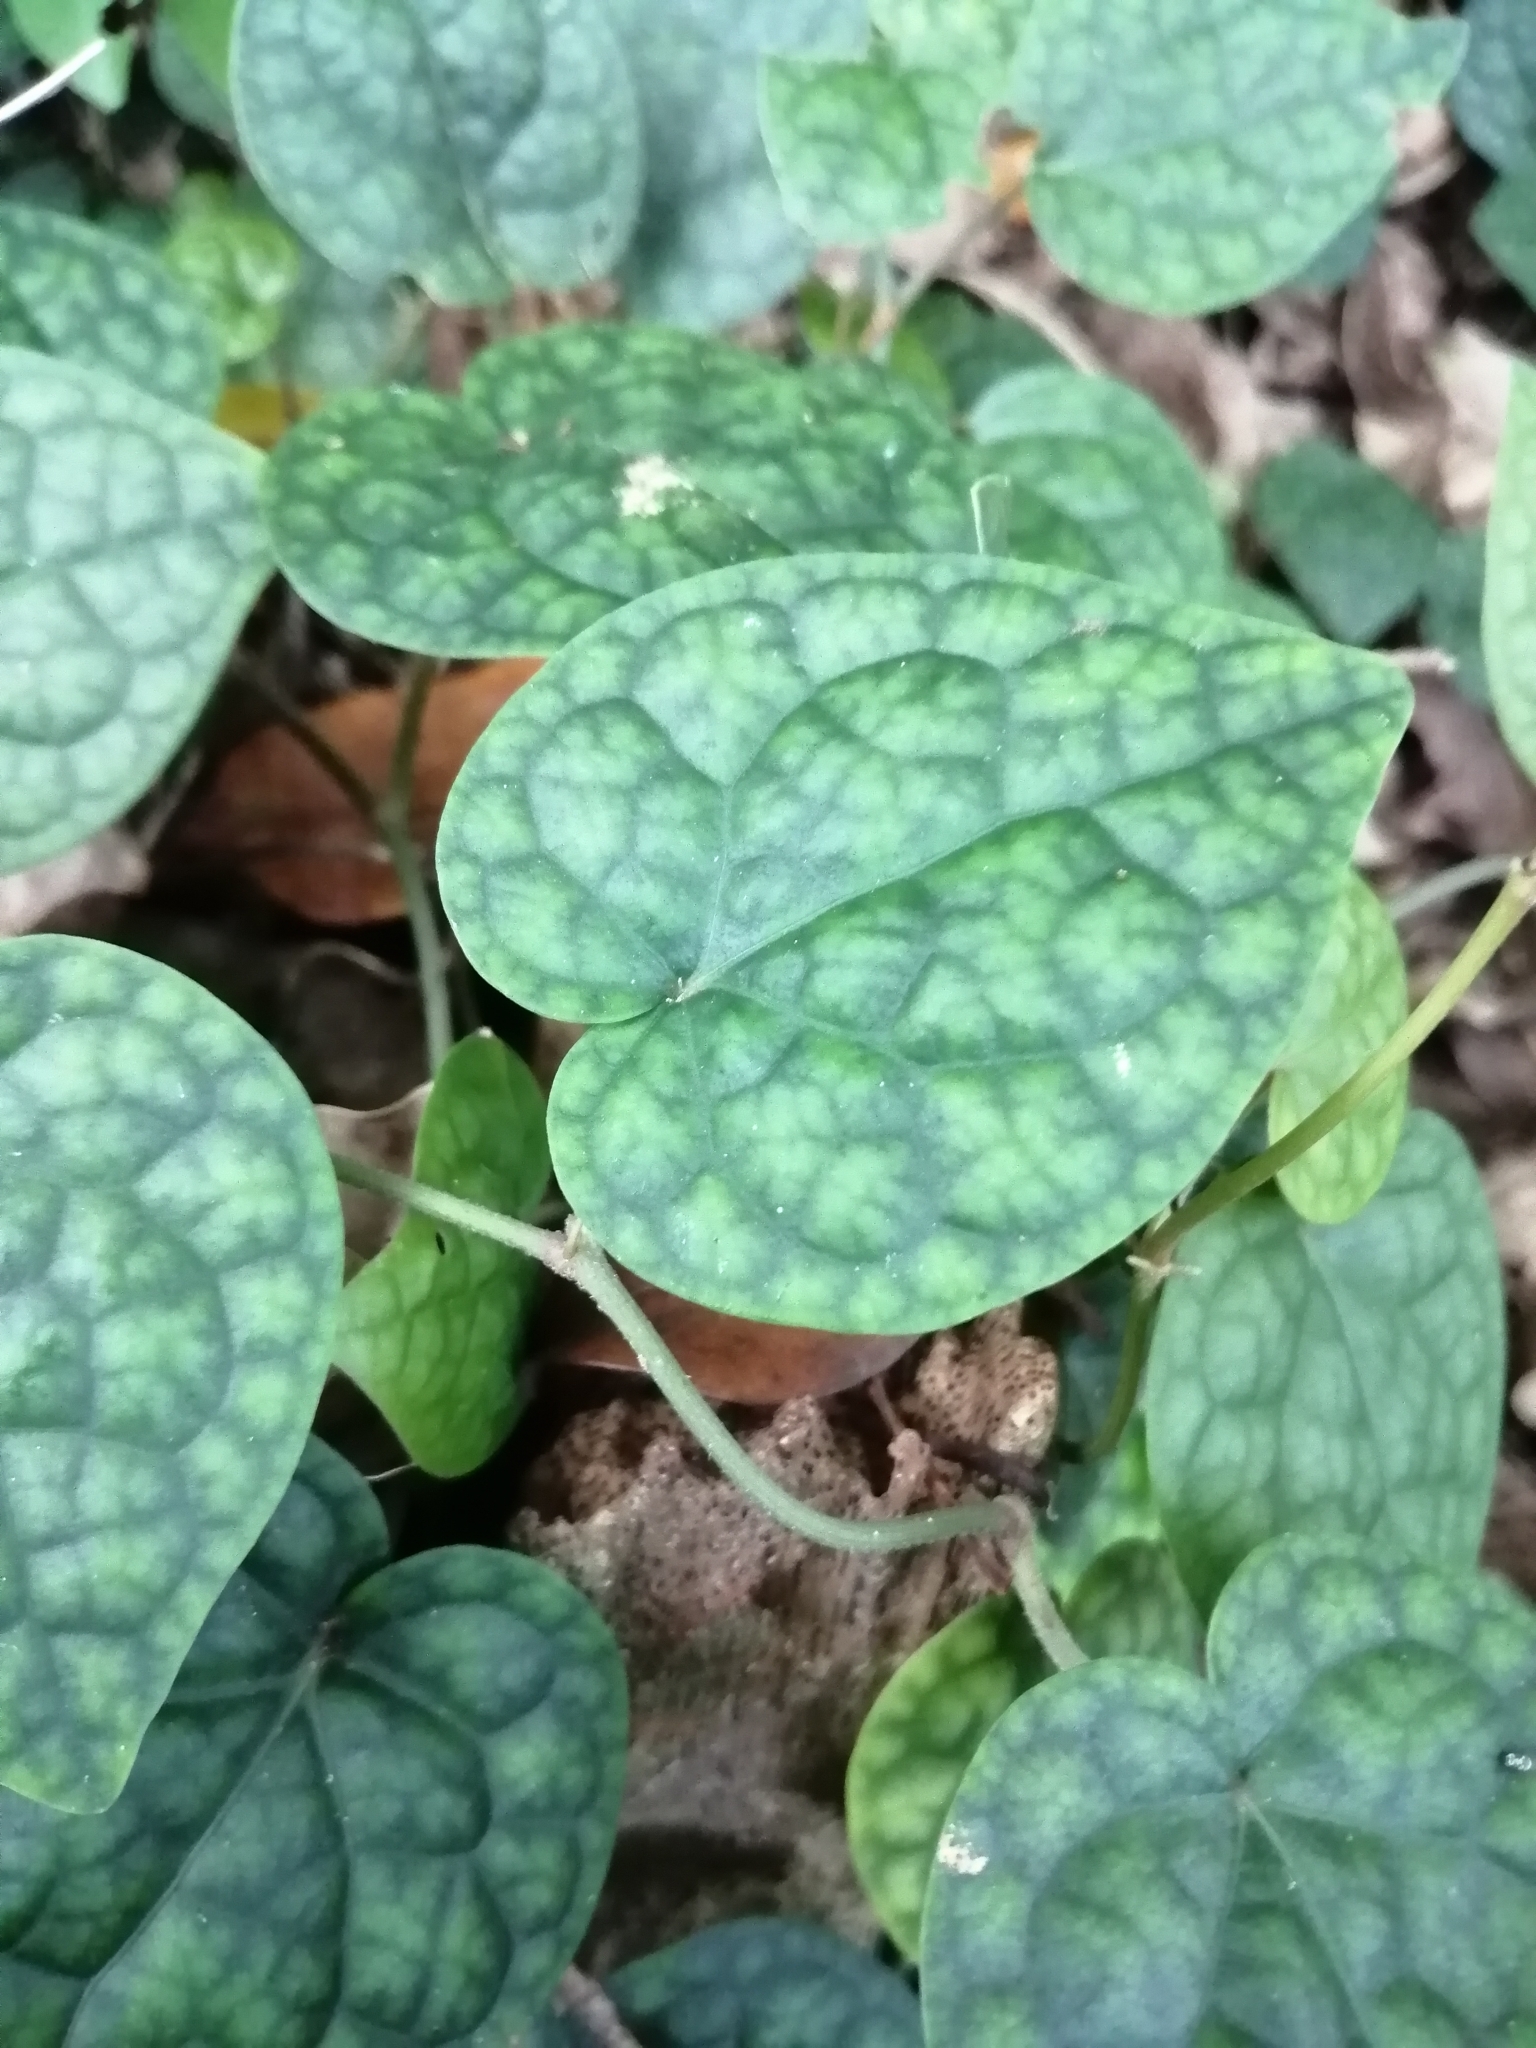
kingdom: Plantae
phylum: Tracheophyta
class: Magnoliopsida
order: Piperales
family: Piperaceae
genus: Piper
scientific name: Piper kadsura
